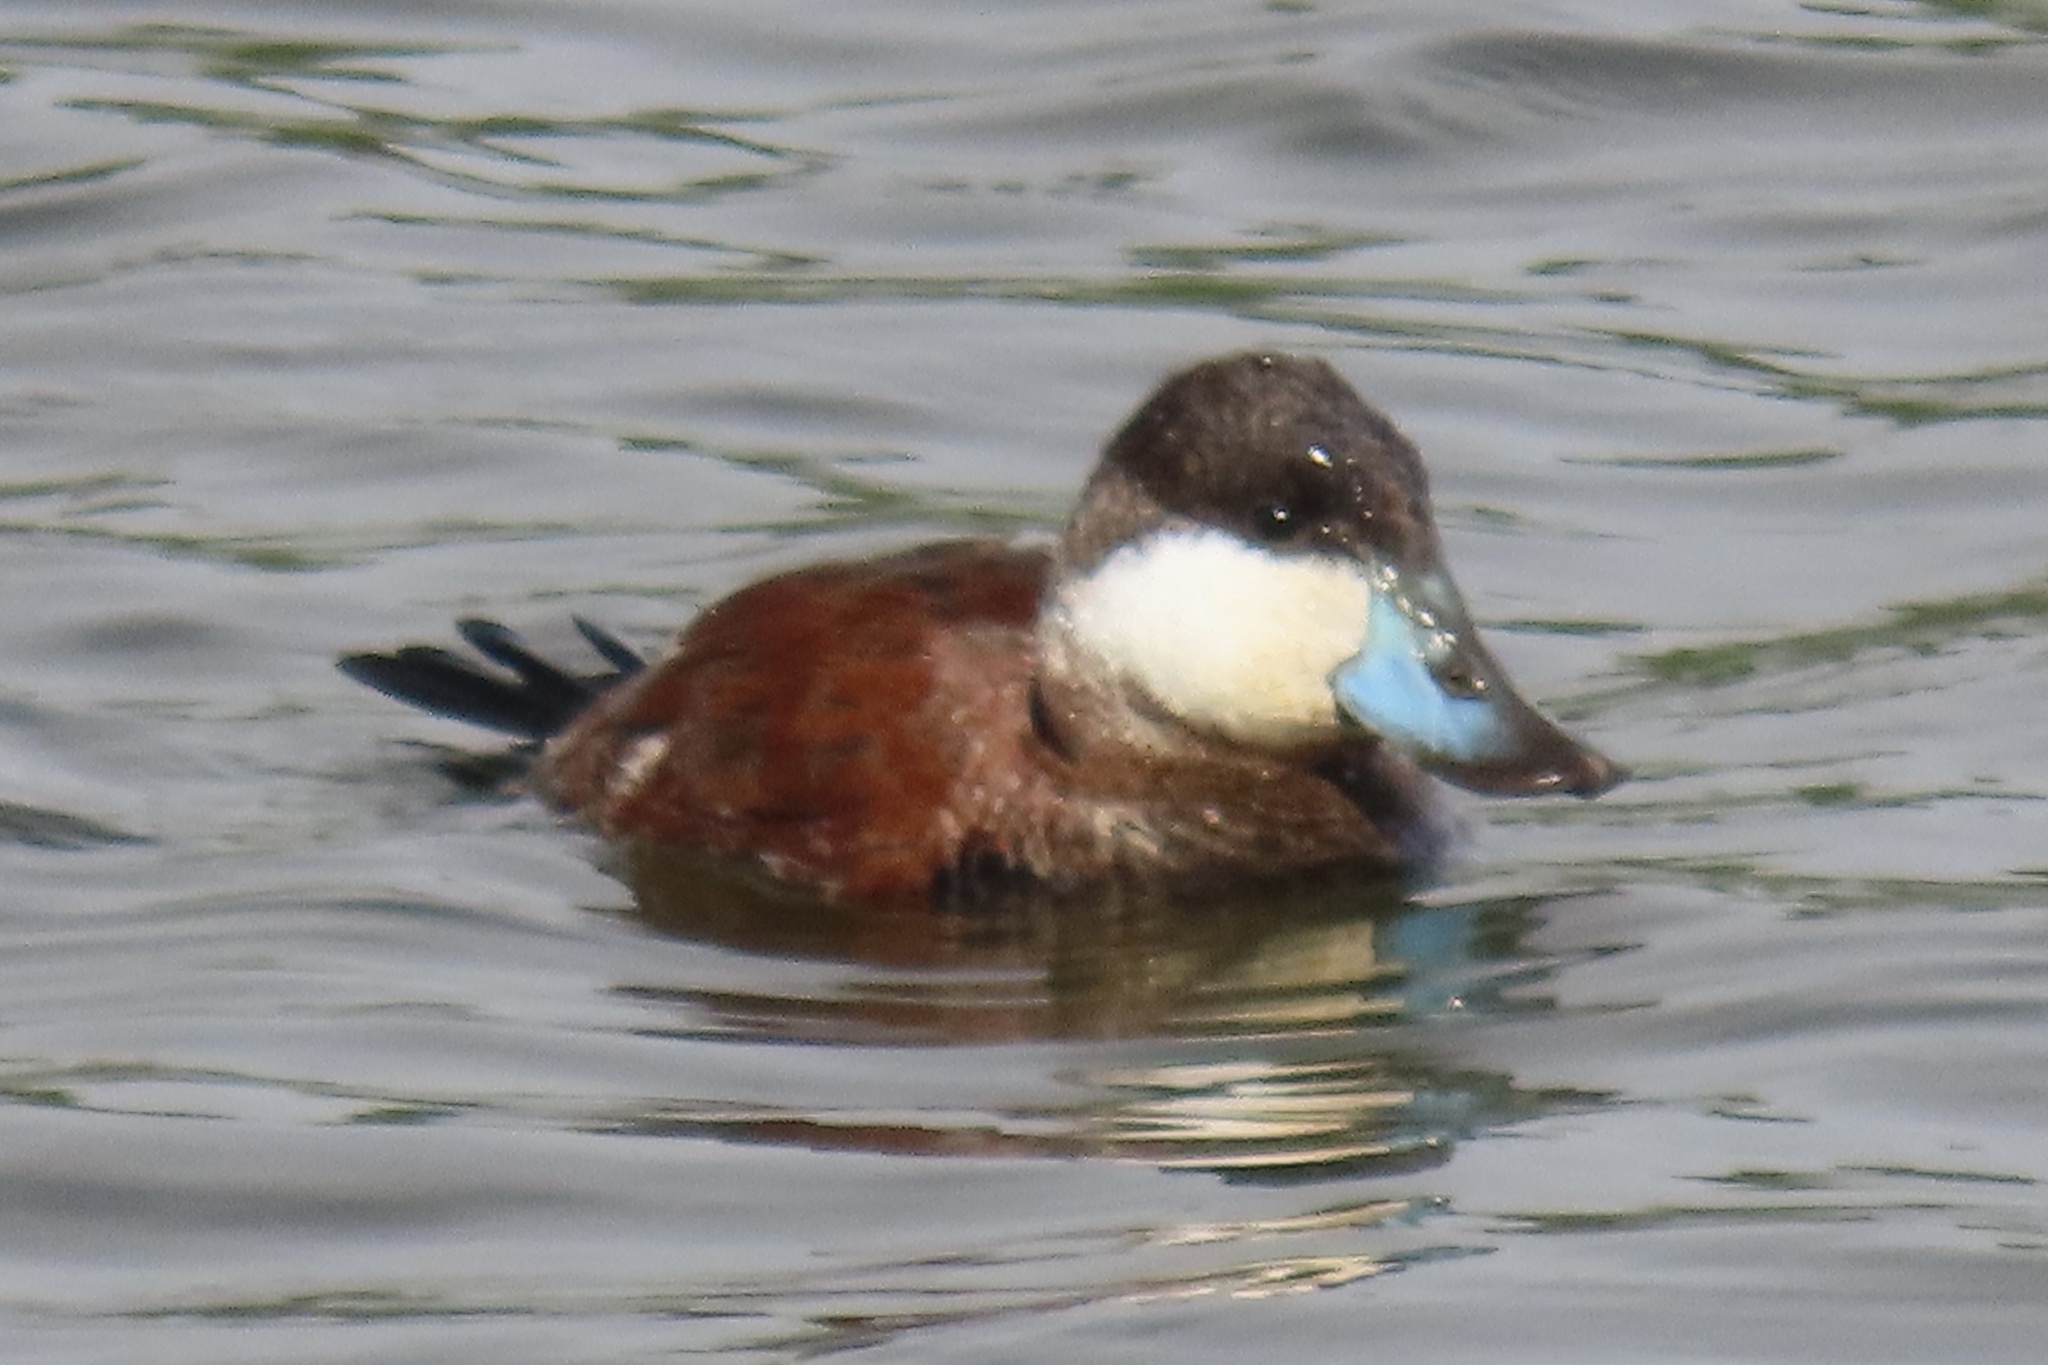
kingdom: Animalia
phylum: Chordata
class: Aves
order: Anseriformes
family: Anatidae
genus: Oxyura
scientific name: Oxyura jamaicensis
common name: Ruddy duck
